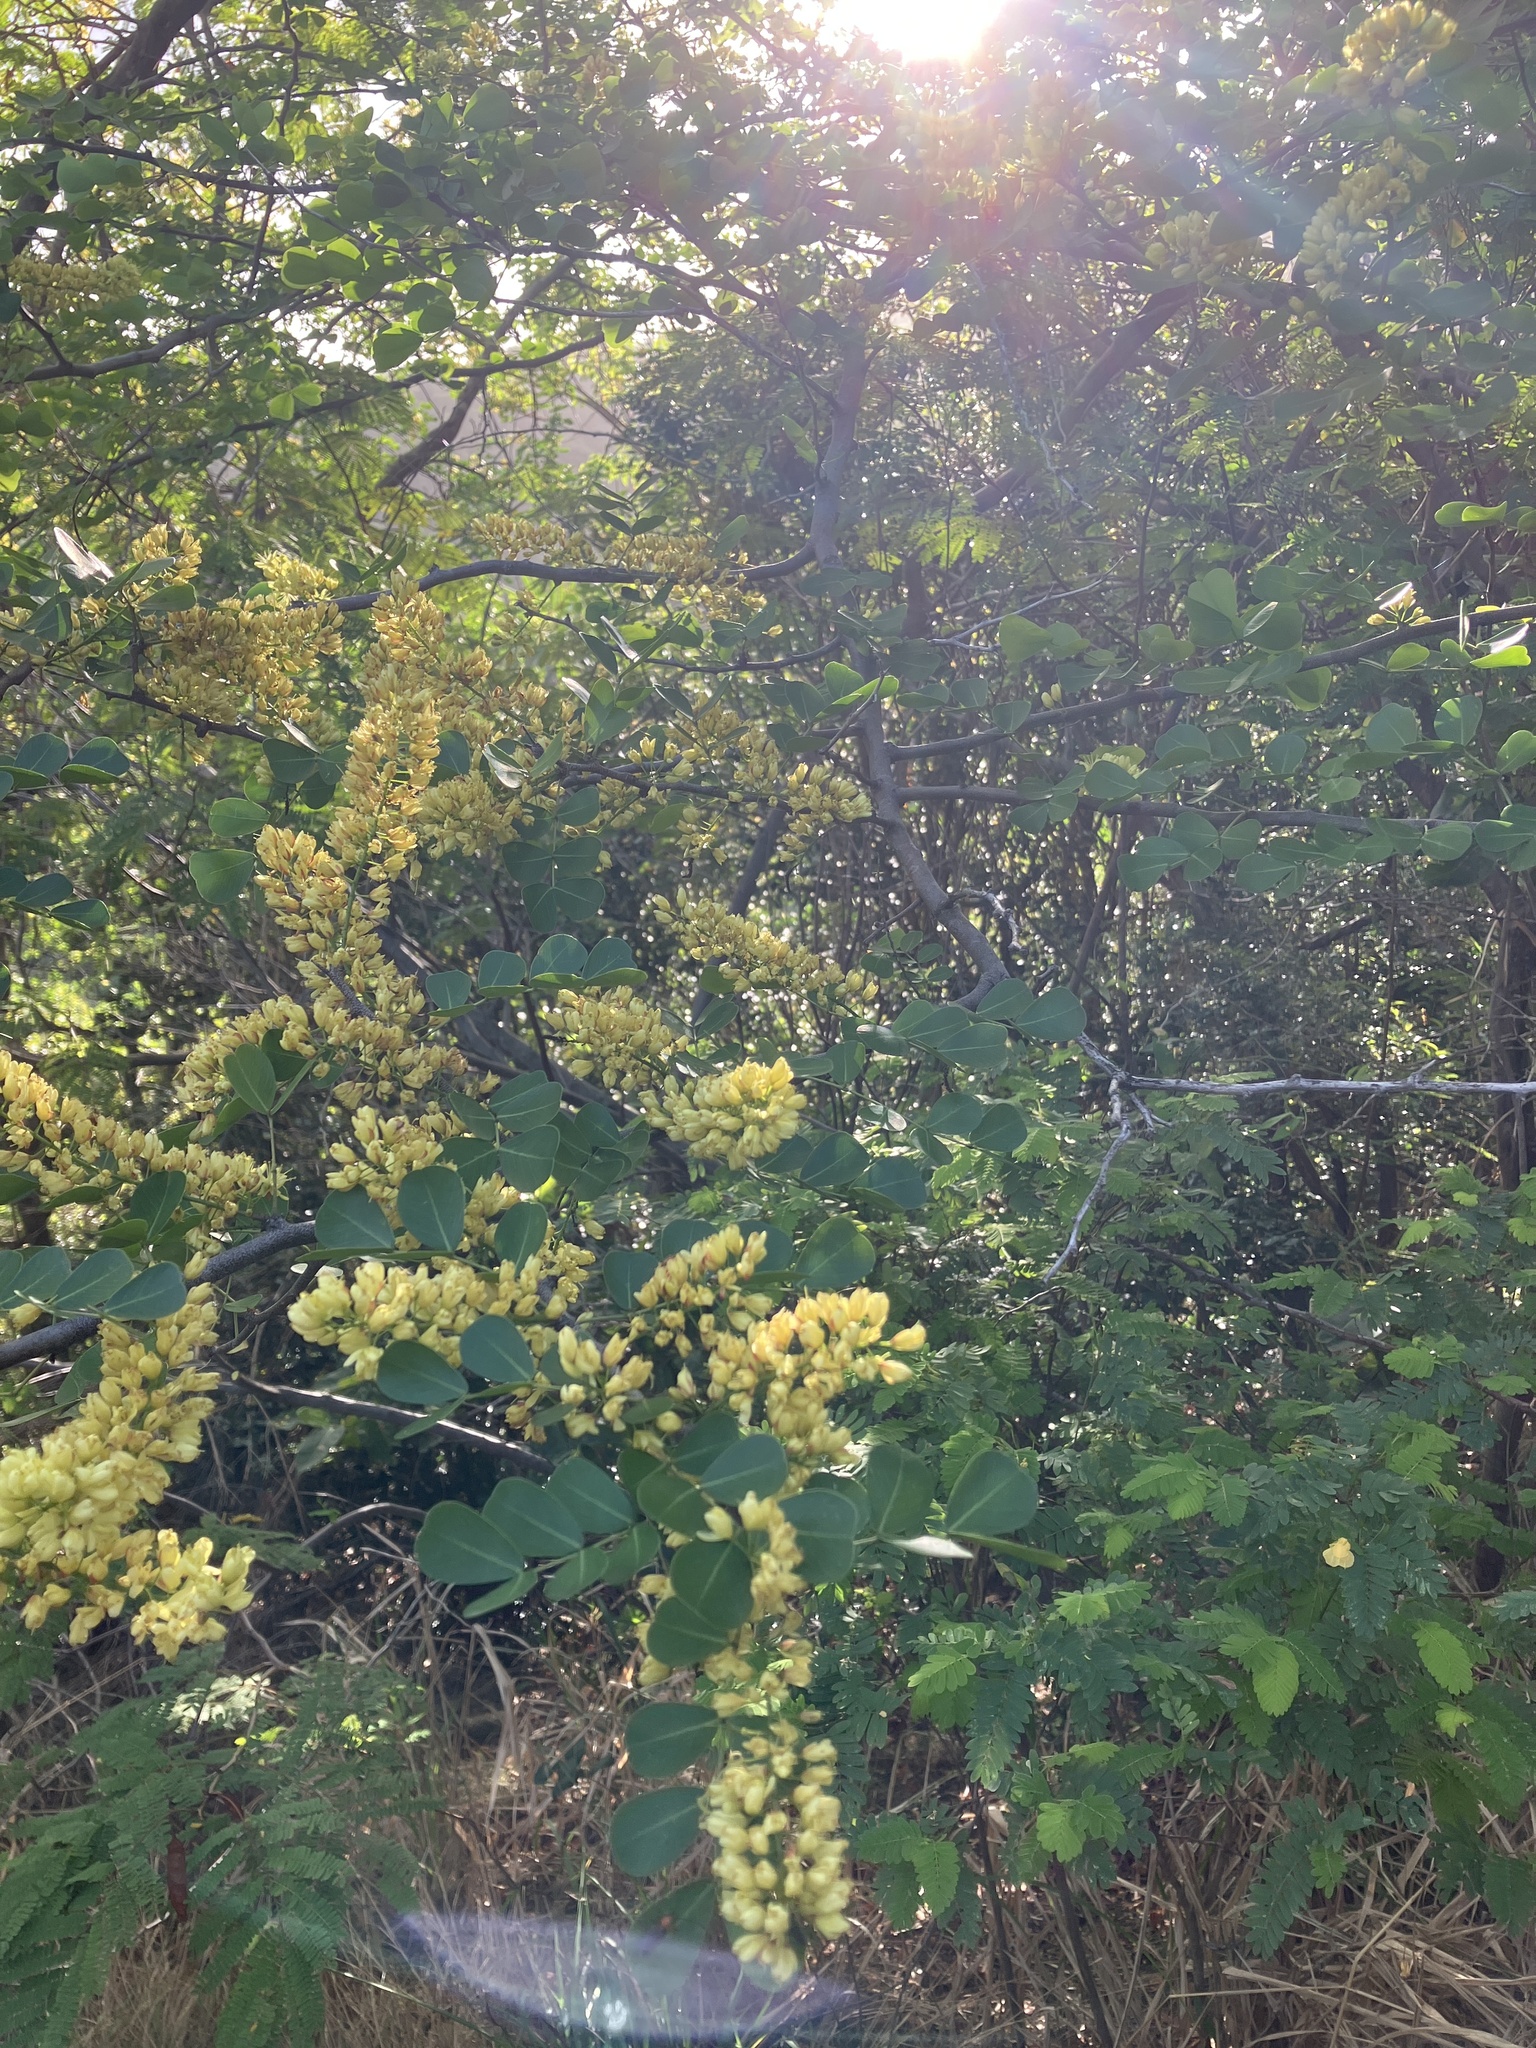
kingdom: Plantae
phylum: Tracheophyta
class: Magnoliopsida
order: Fabales
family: Fabaceae
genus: Haematoxylum
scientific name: Haematoxylum campechianum
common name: Logwood
